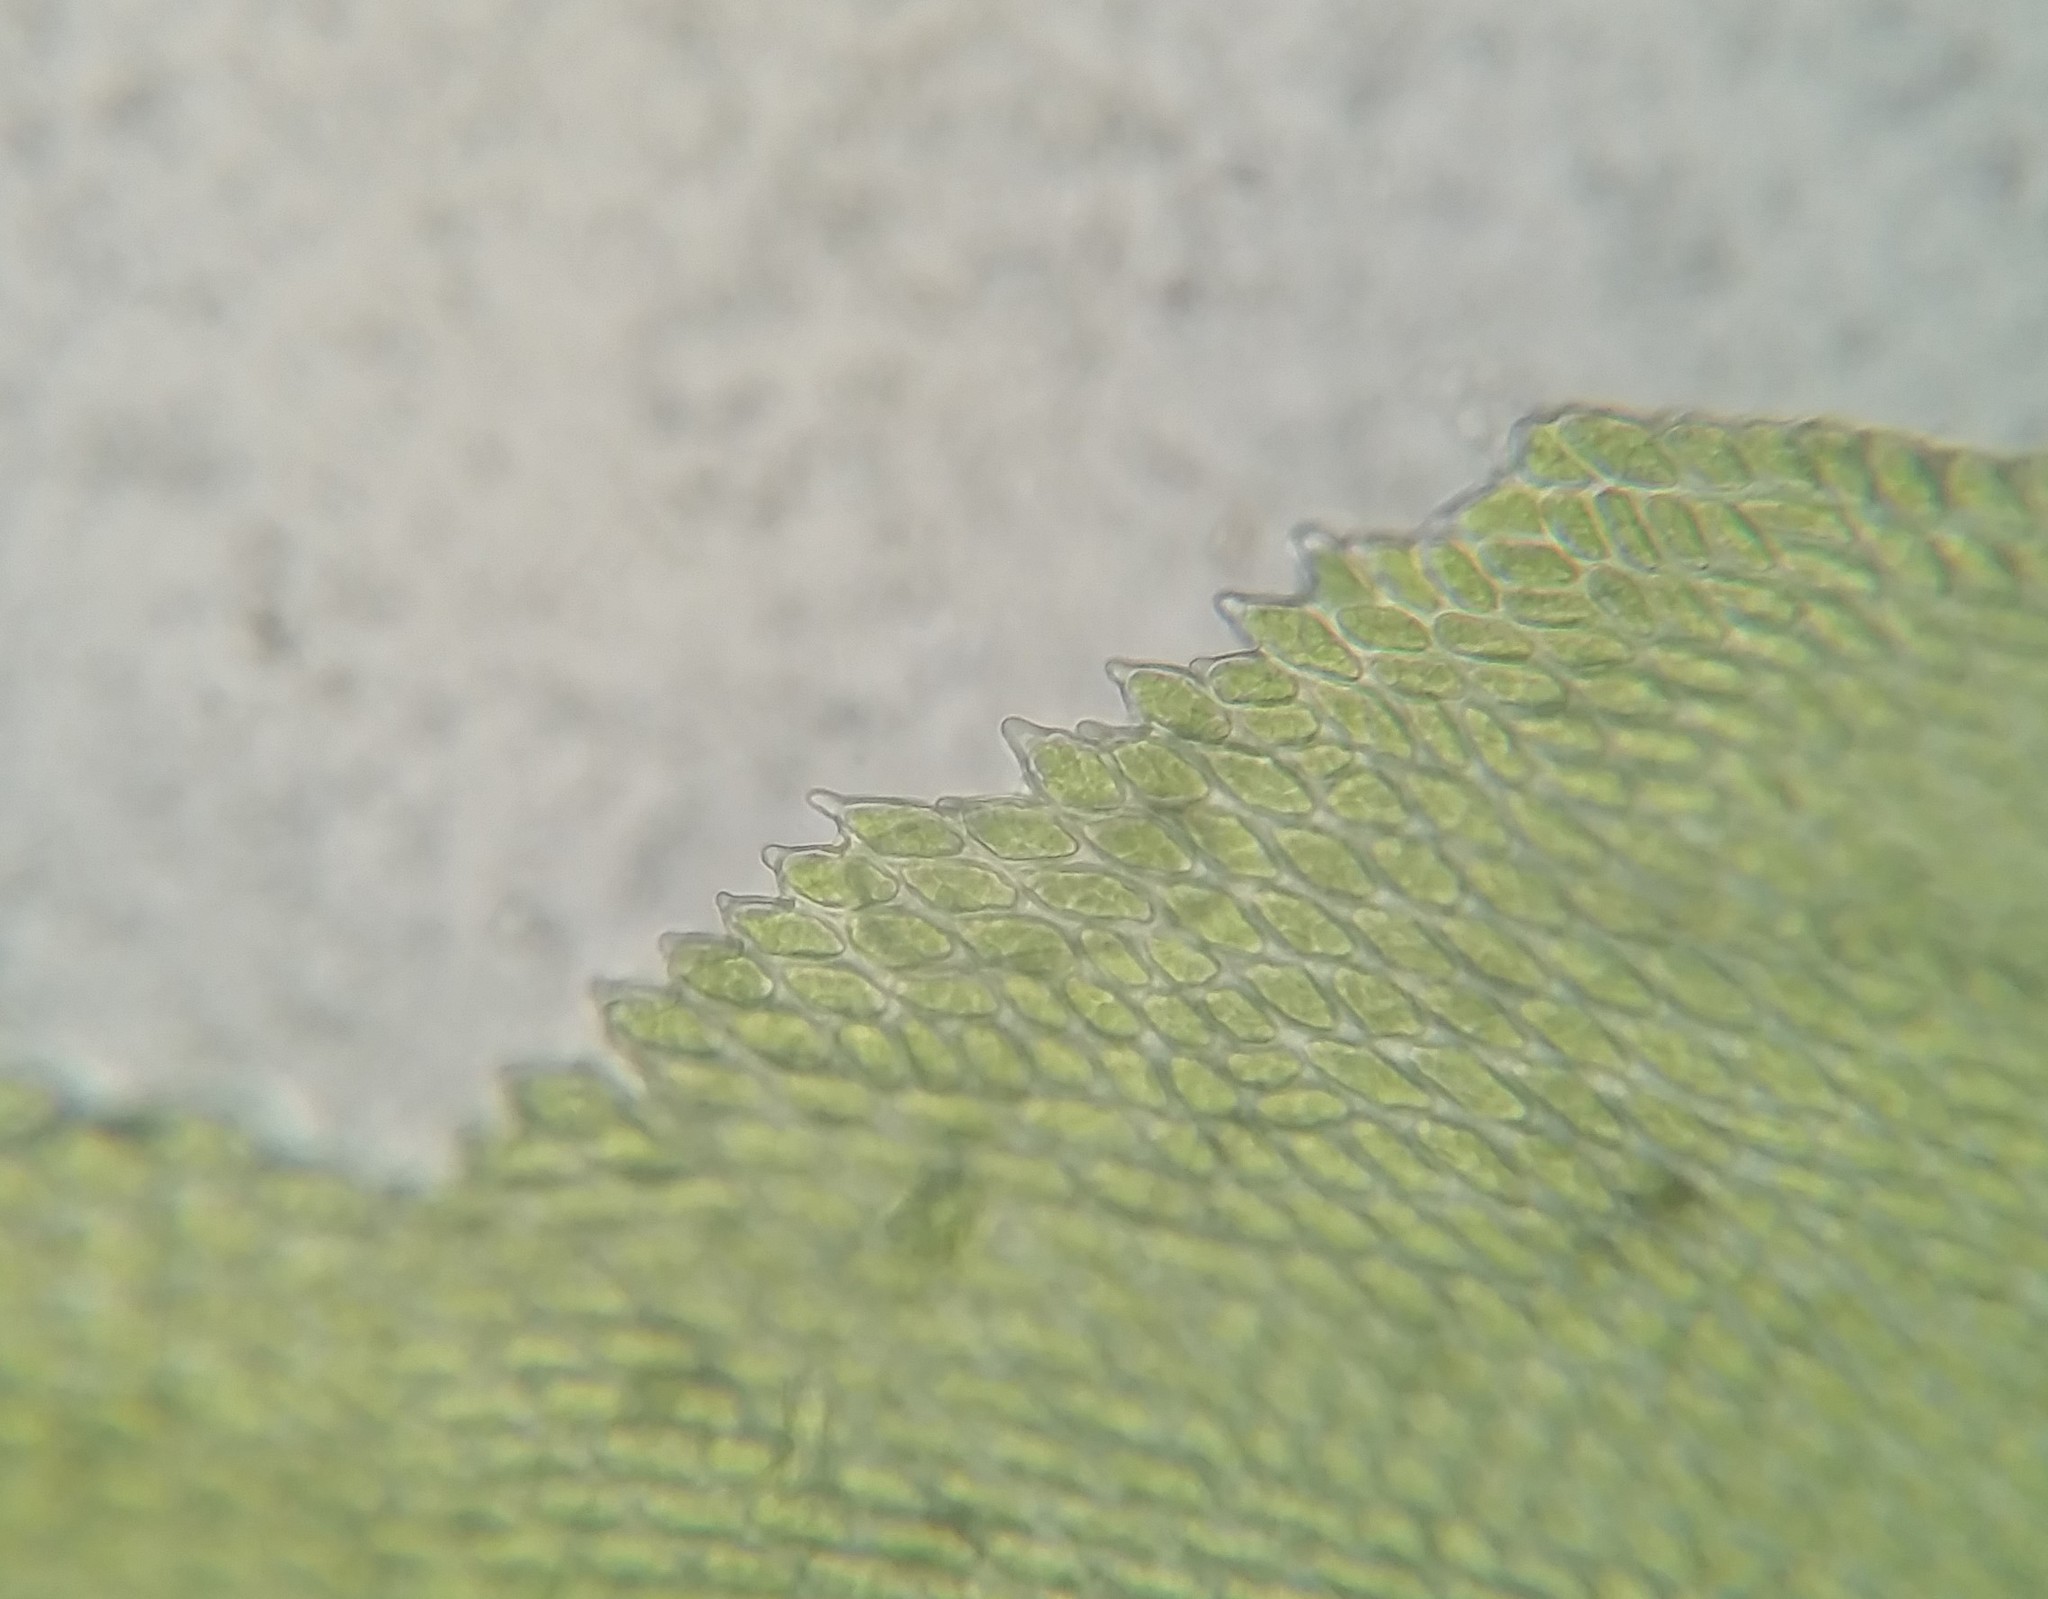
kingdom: Plantae
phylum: Bryophyta
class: Bryopsida
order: Hypnales
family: Leucodontaceae
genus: Leucodon
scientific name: Leucodon julaceus
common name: Smooth hook moss
